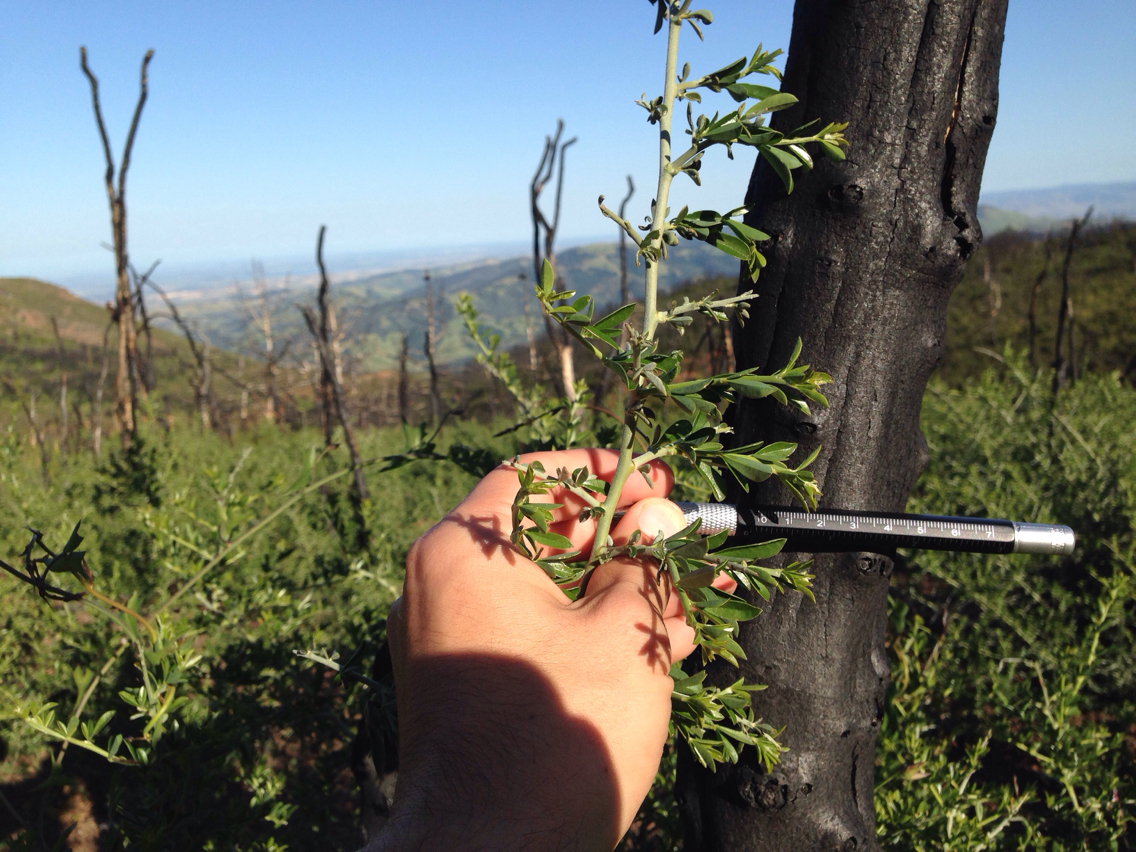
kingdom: Plantae
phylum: Tracheophyta
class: Magnoliopsida
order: Fabales
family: Fabaceae
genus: Pickeringia
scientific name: Pickeringia montana
